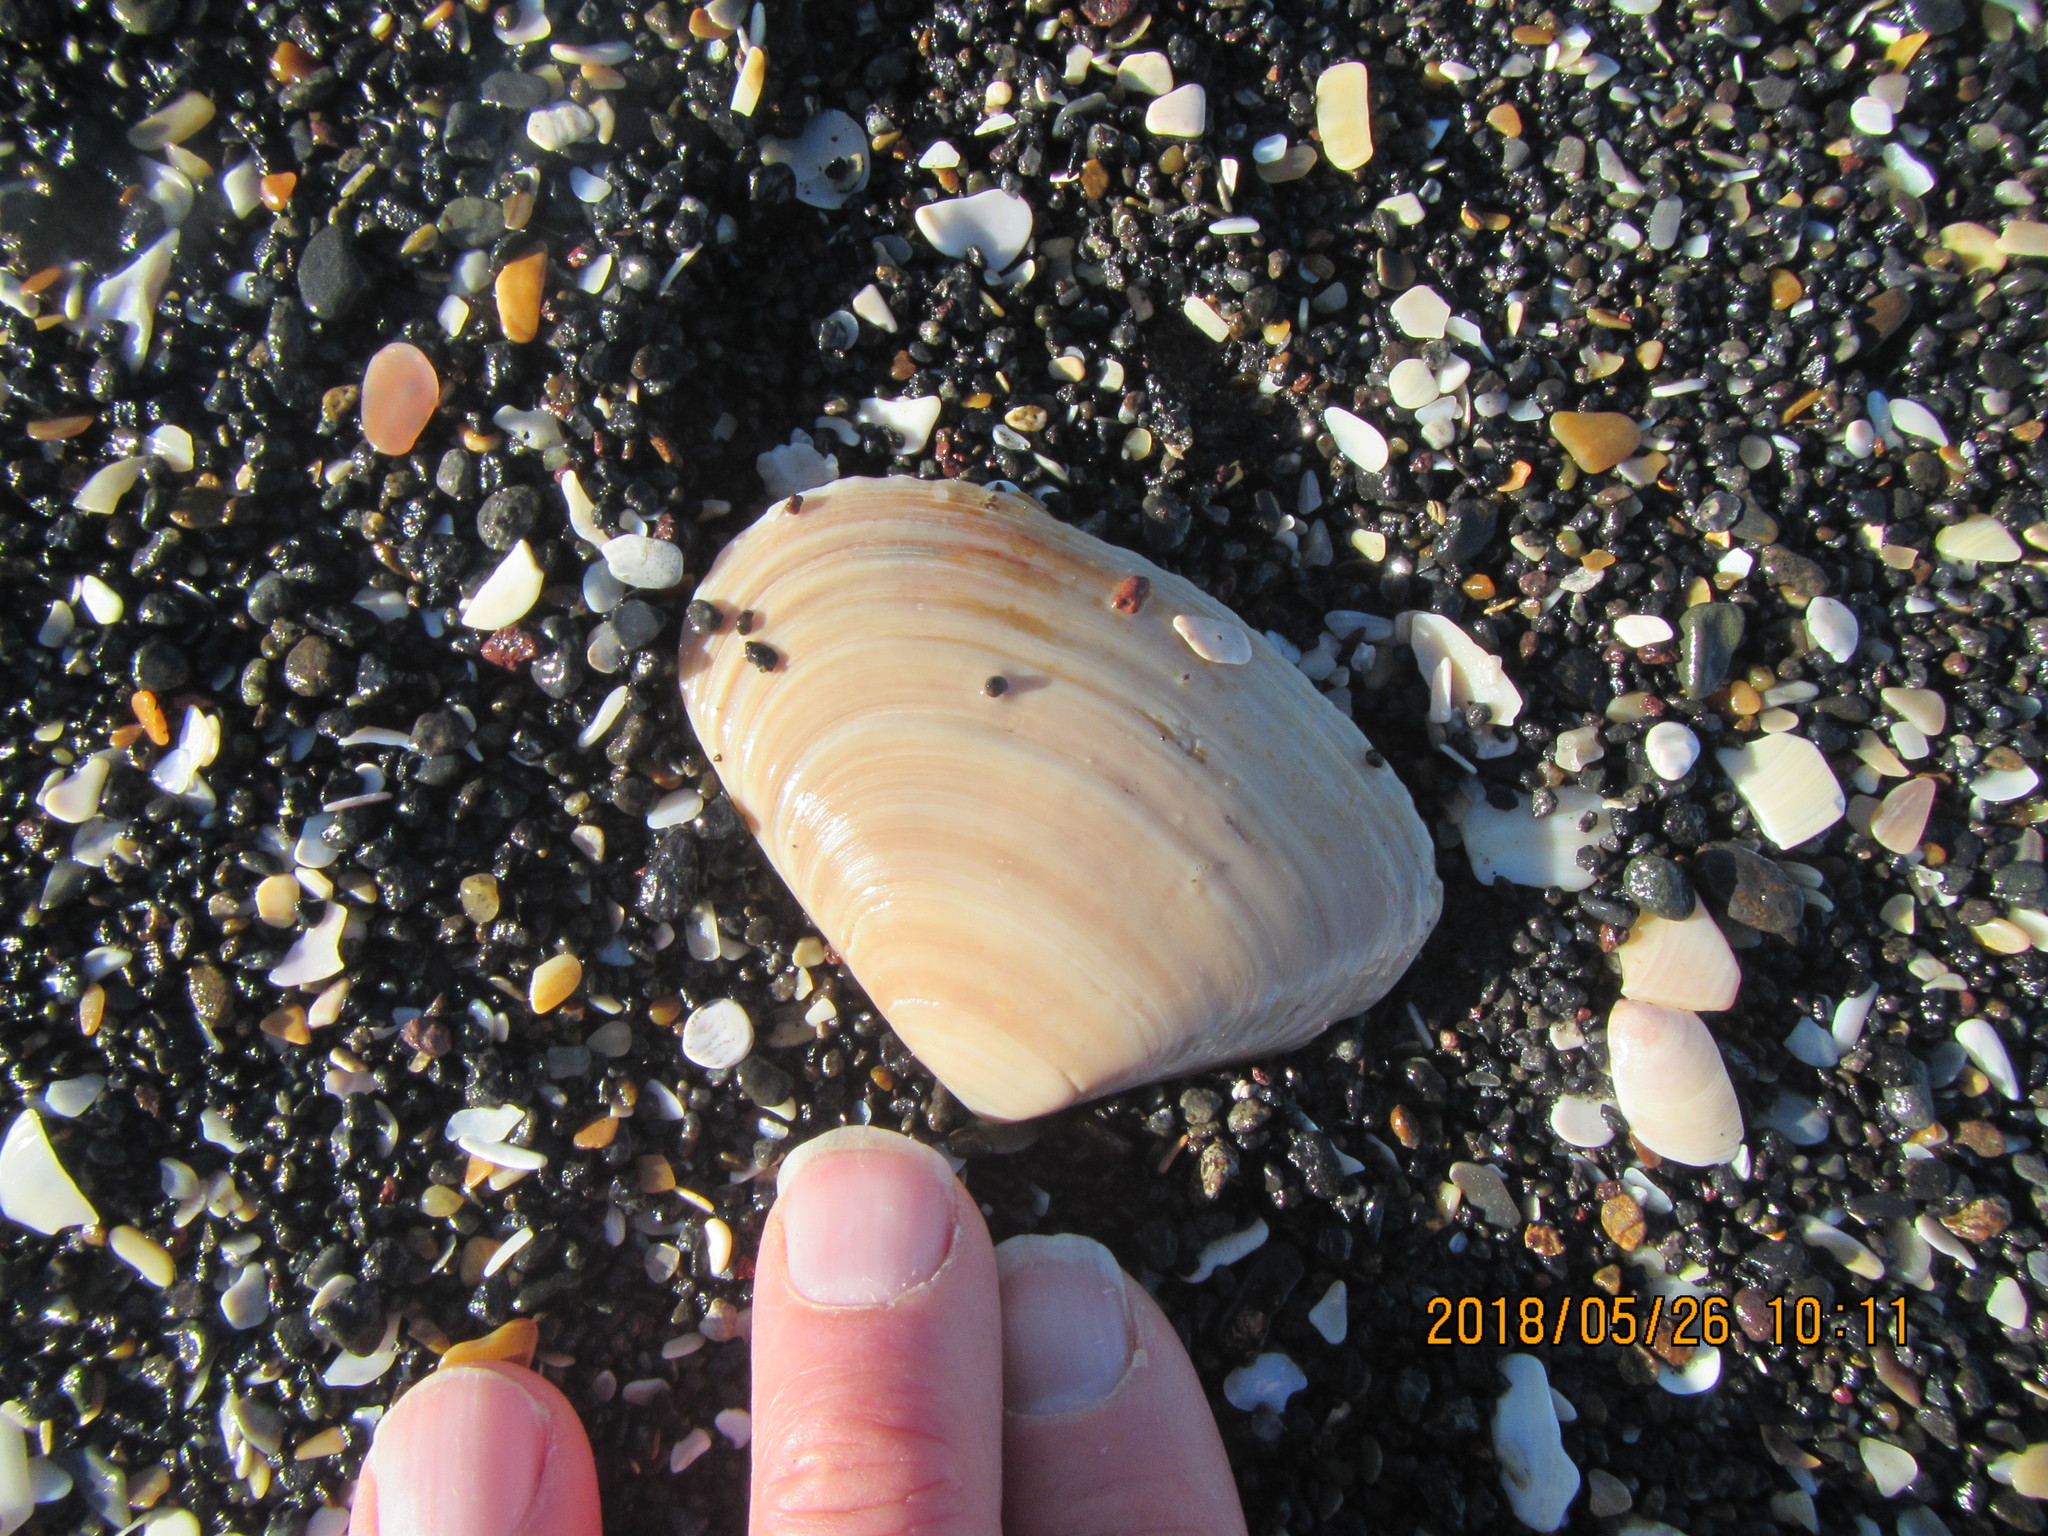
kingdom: Animalia
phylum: Mollusca
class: Bivalvia
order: Venerida
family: Mesodesmatidae
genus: Paphies
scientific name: Paphies subtriangulata
